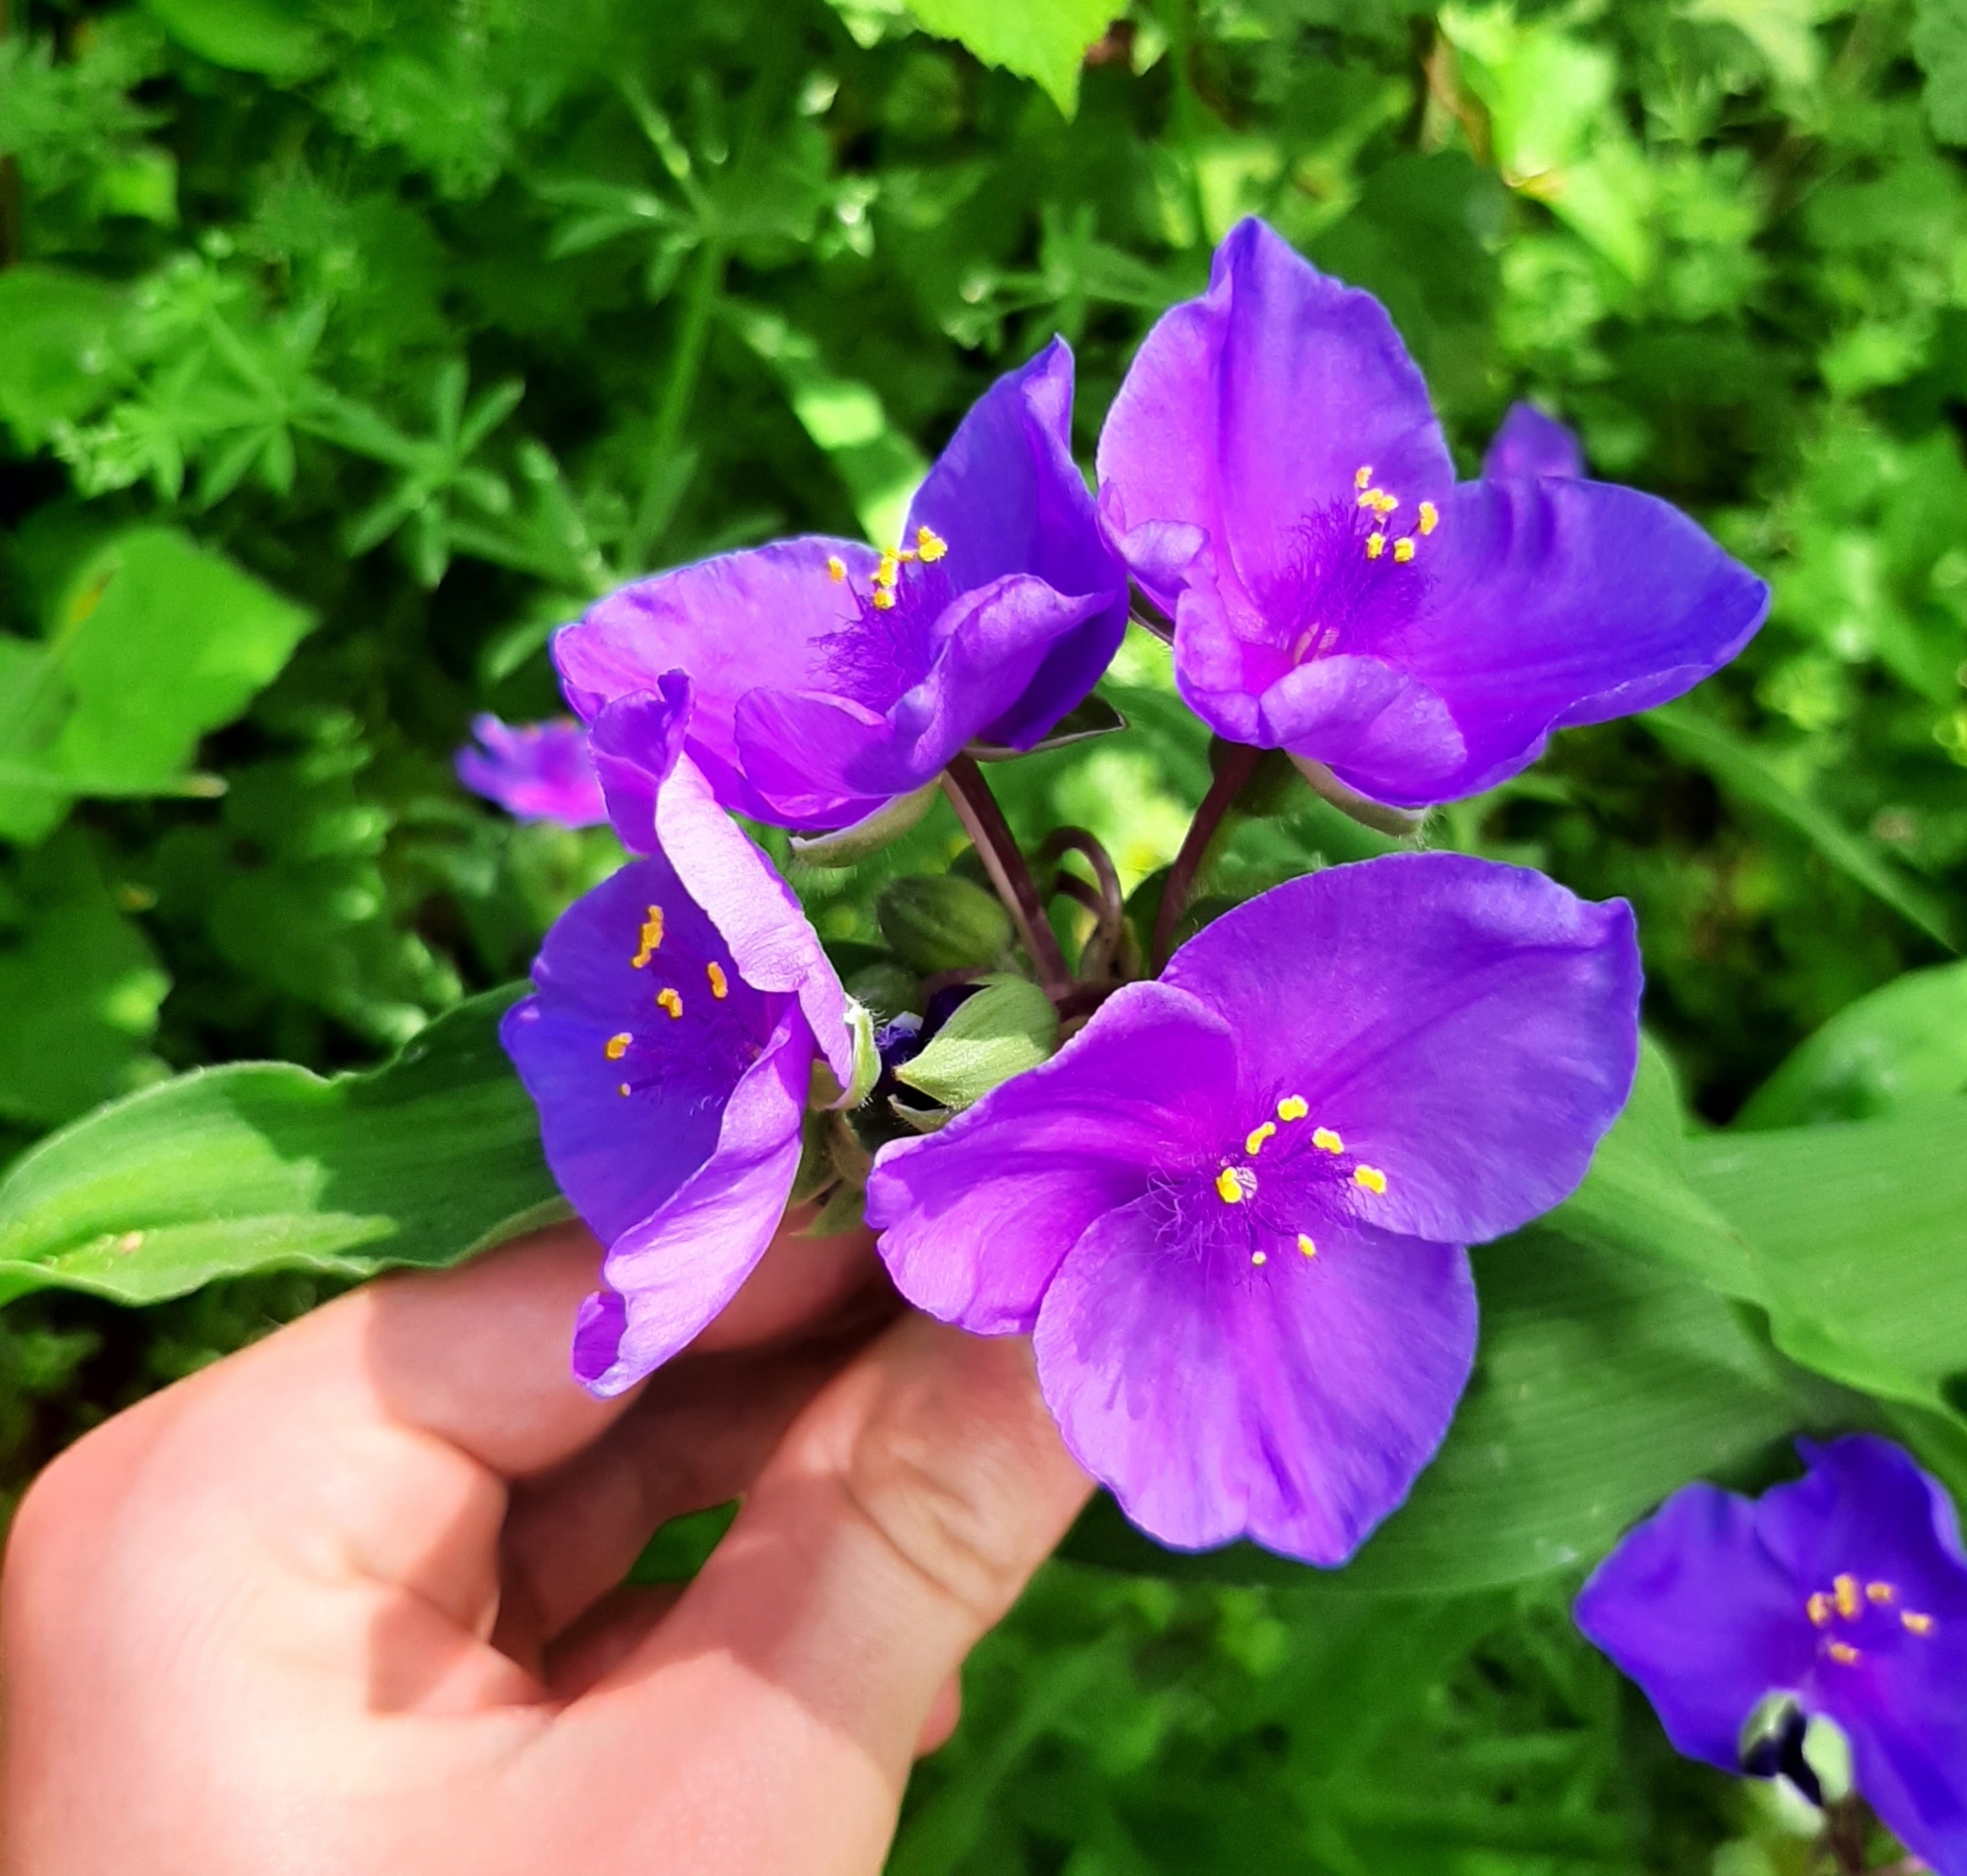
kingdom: Plantae
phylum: Tracheophyta
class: Liliopsida
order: Commelinales
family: Commelinaceae
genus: Tradescantia
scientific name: Tradescantia virginiana
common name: Spiderwort
